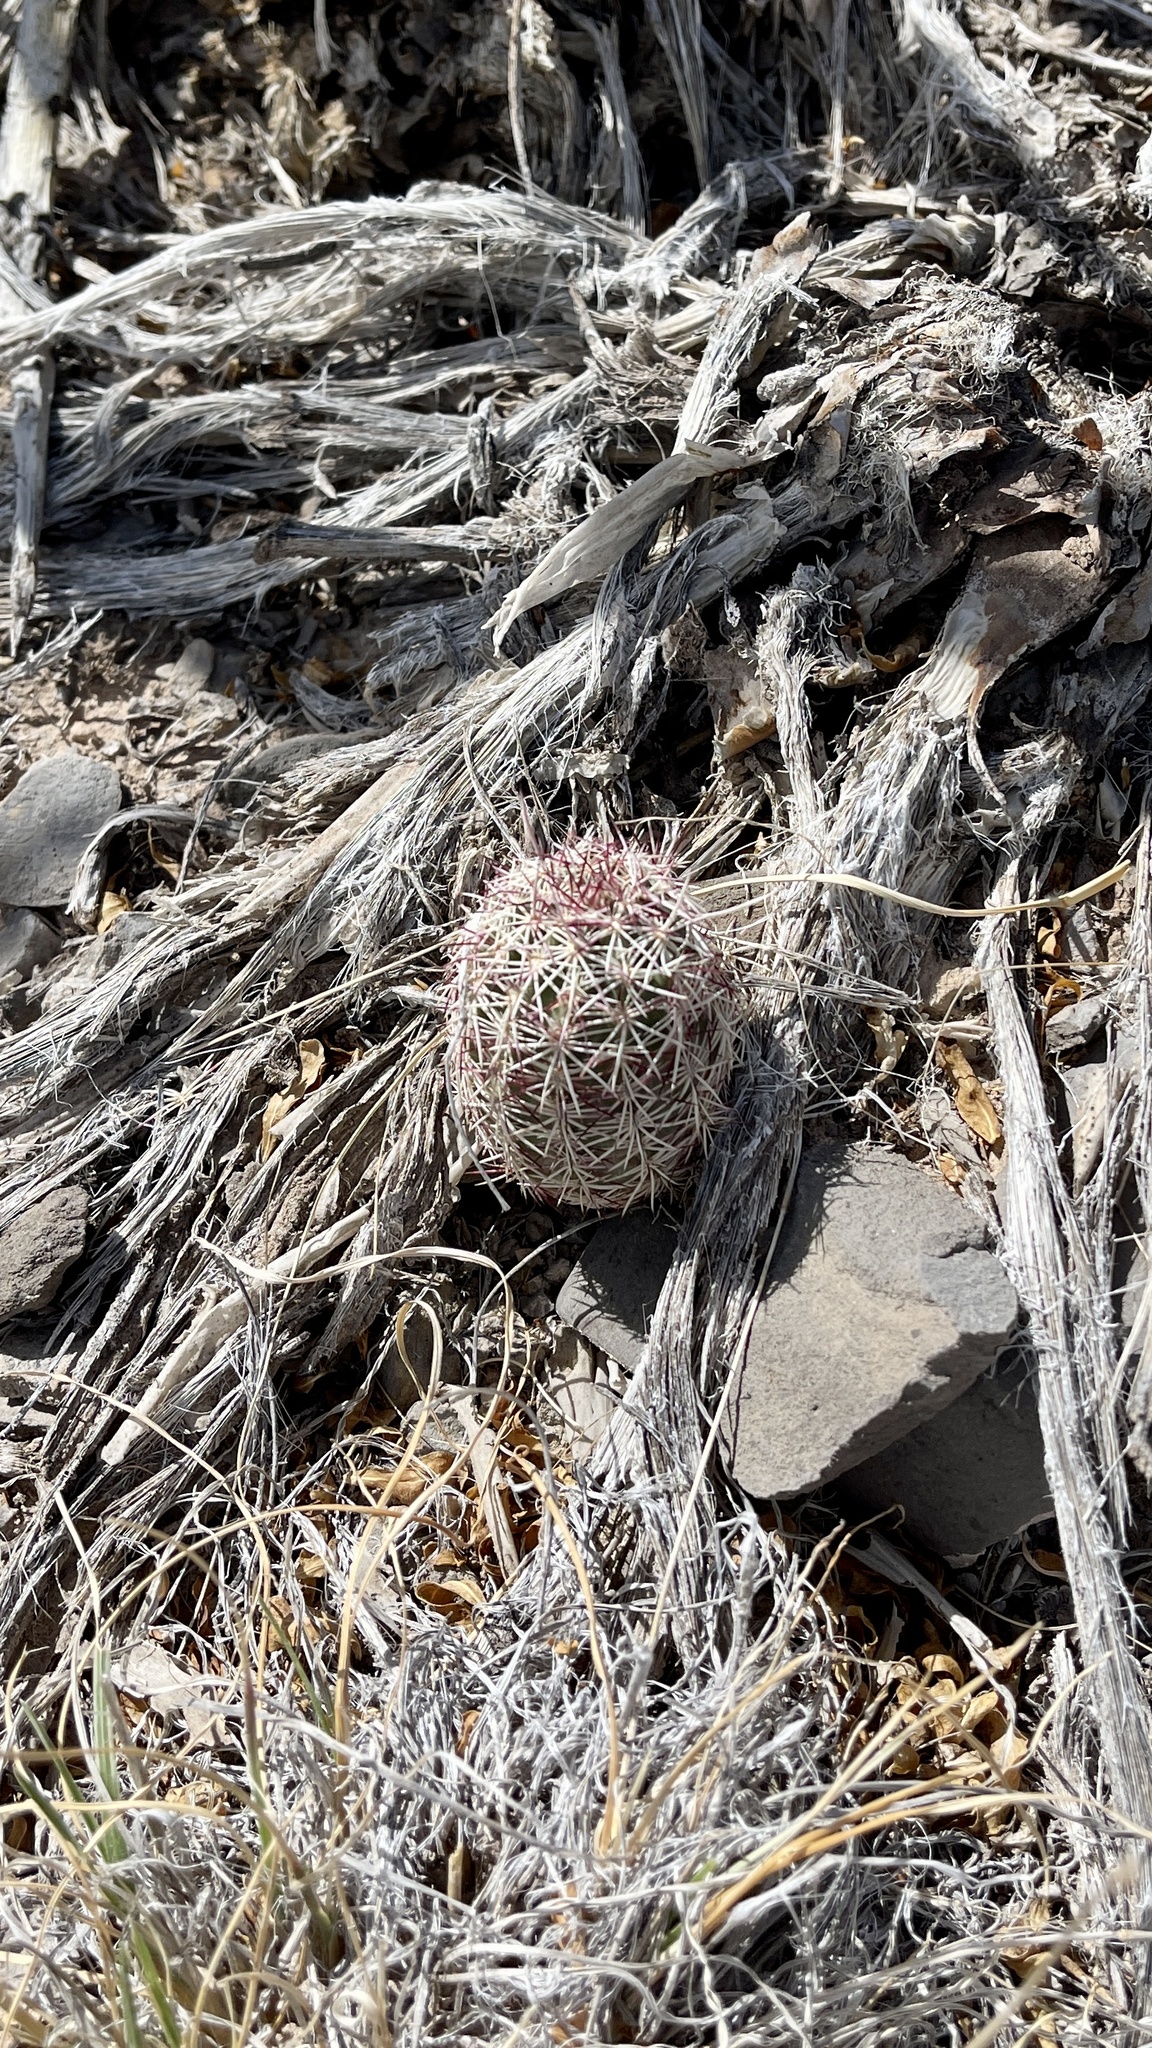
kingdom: Plantae
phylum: Tracheophyta
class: Magnoliopsida
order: Caryophyllales
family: Cactaceae
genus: Echinocereus
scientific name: Echinocereus viridiflorus
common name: Nylon hedgehog cactus
